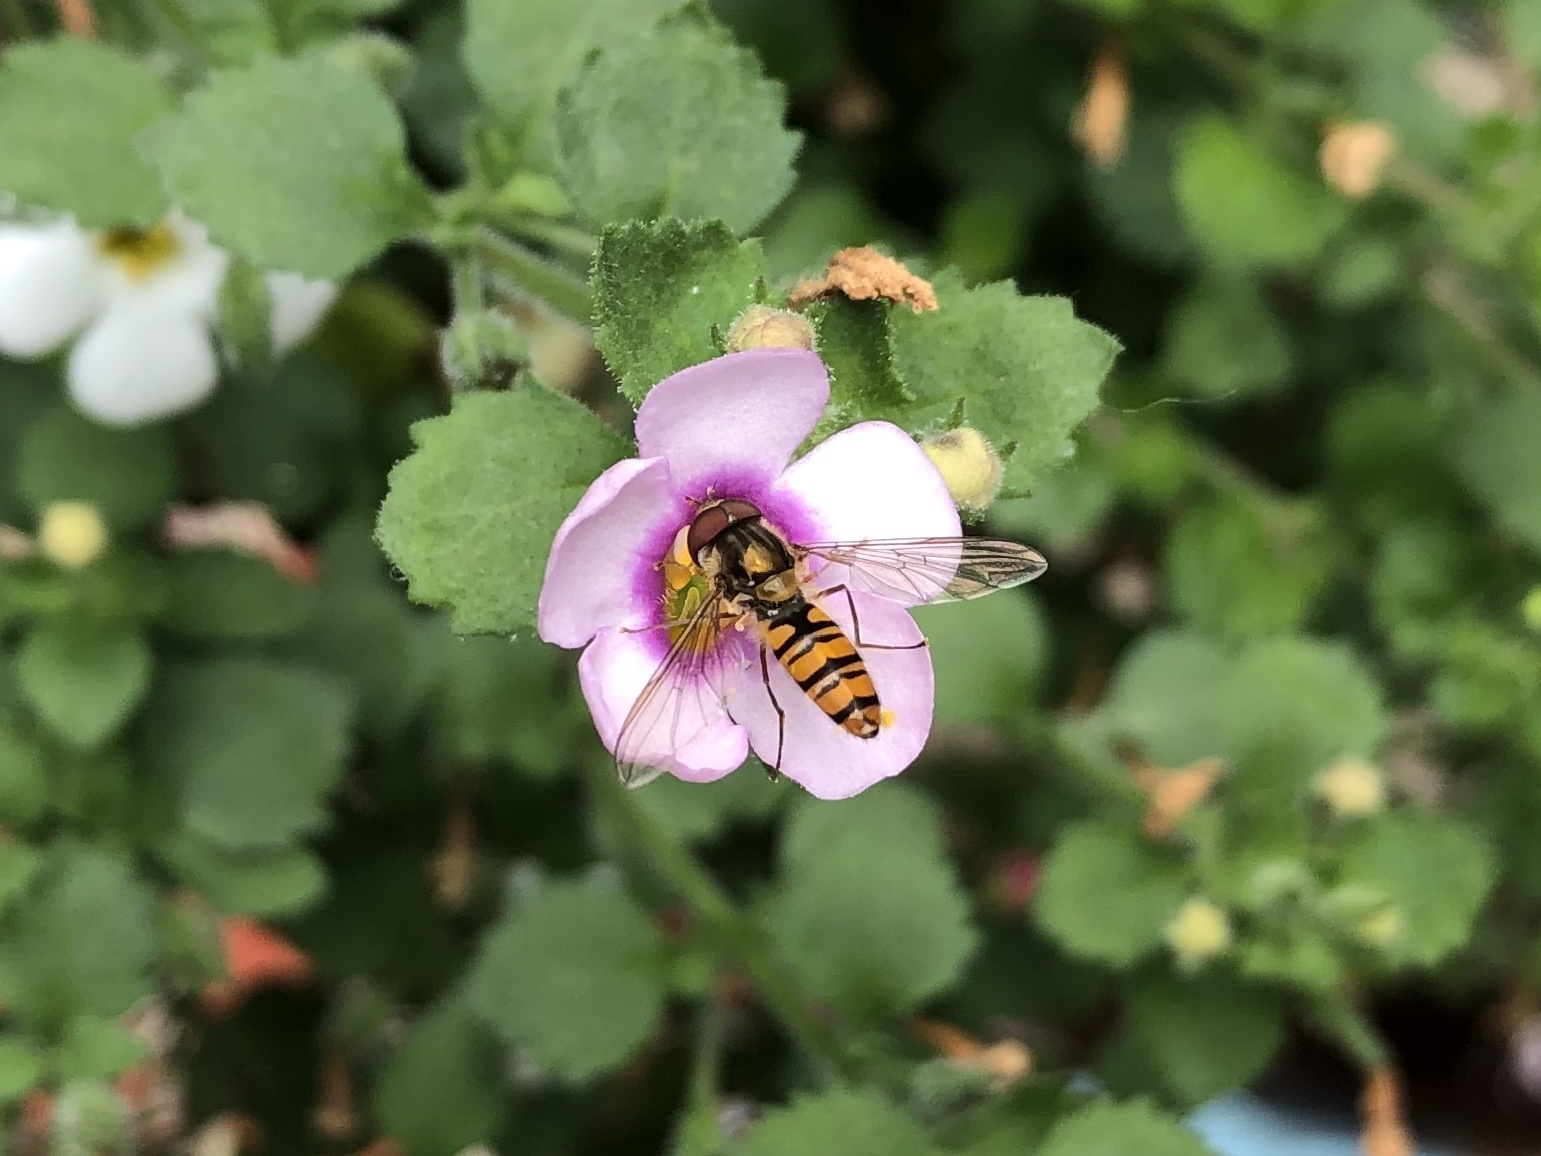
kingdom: Animalia
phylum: Arthropoda
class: Insecta
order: Diptera
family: Syrphidae
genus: Episyrphus
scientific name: Episyrphus balteatus
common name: Marmalade hoverfly
